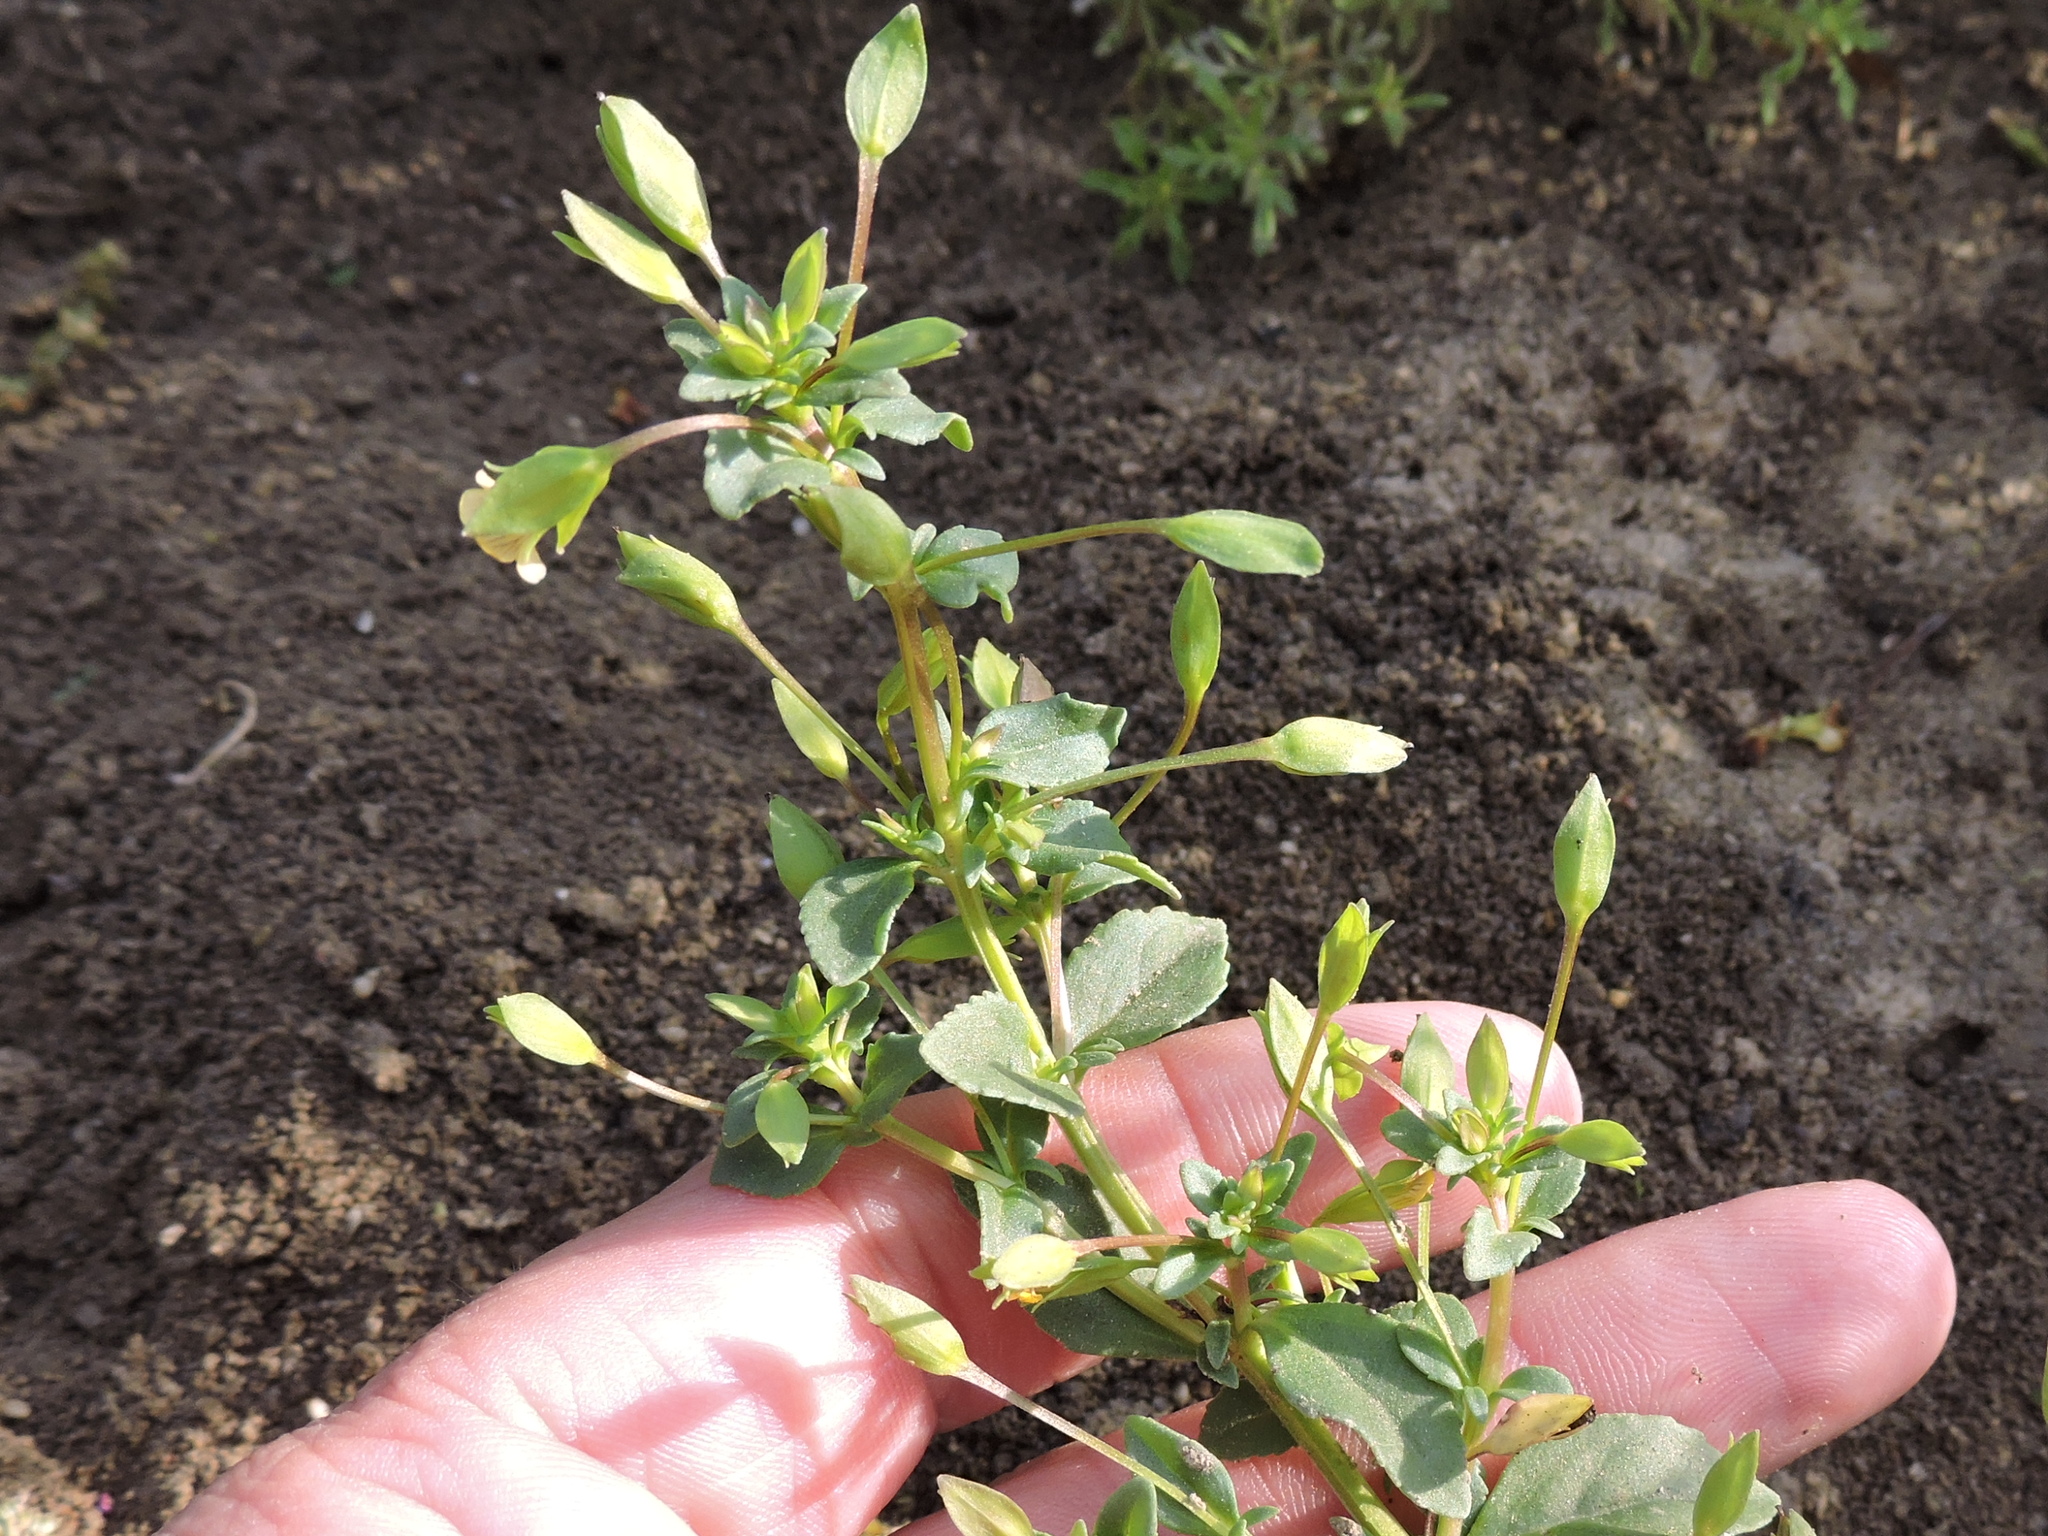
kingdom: Plantae
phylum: Tracheophyta
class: Magnoliopsida
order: Lamiales
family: Plantaginaceae
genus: Mecardonia
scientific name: Mecardonia procumbens
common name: Baby jump-up
